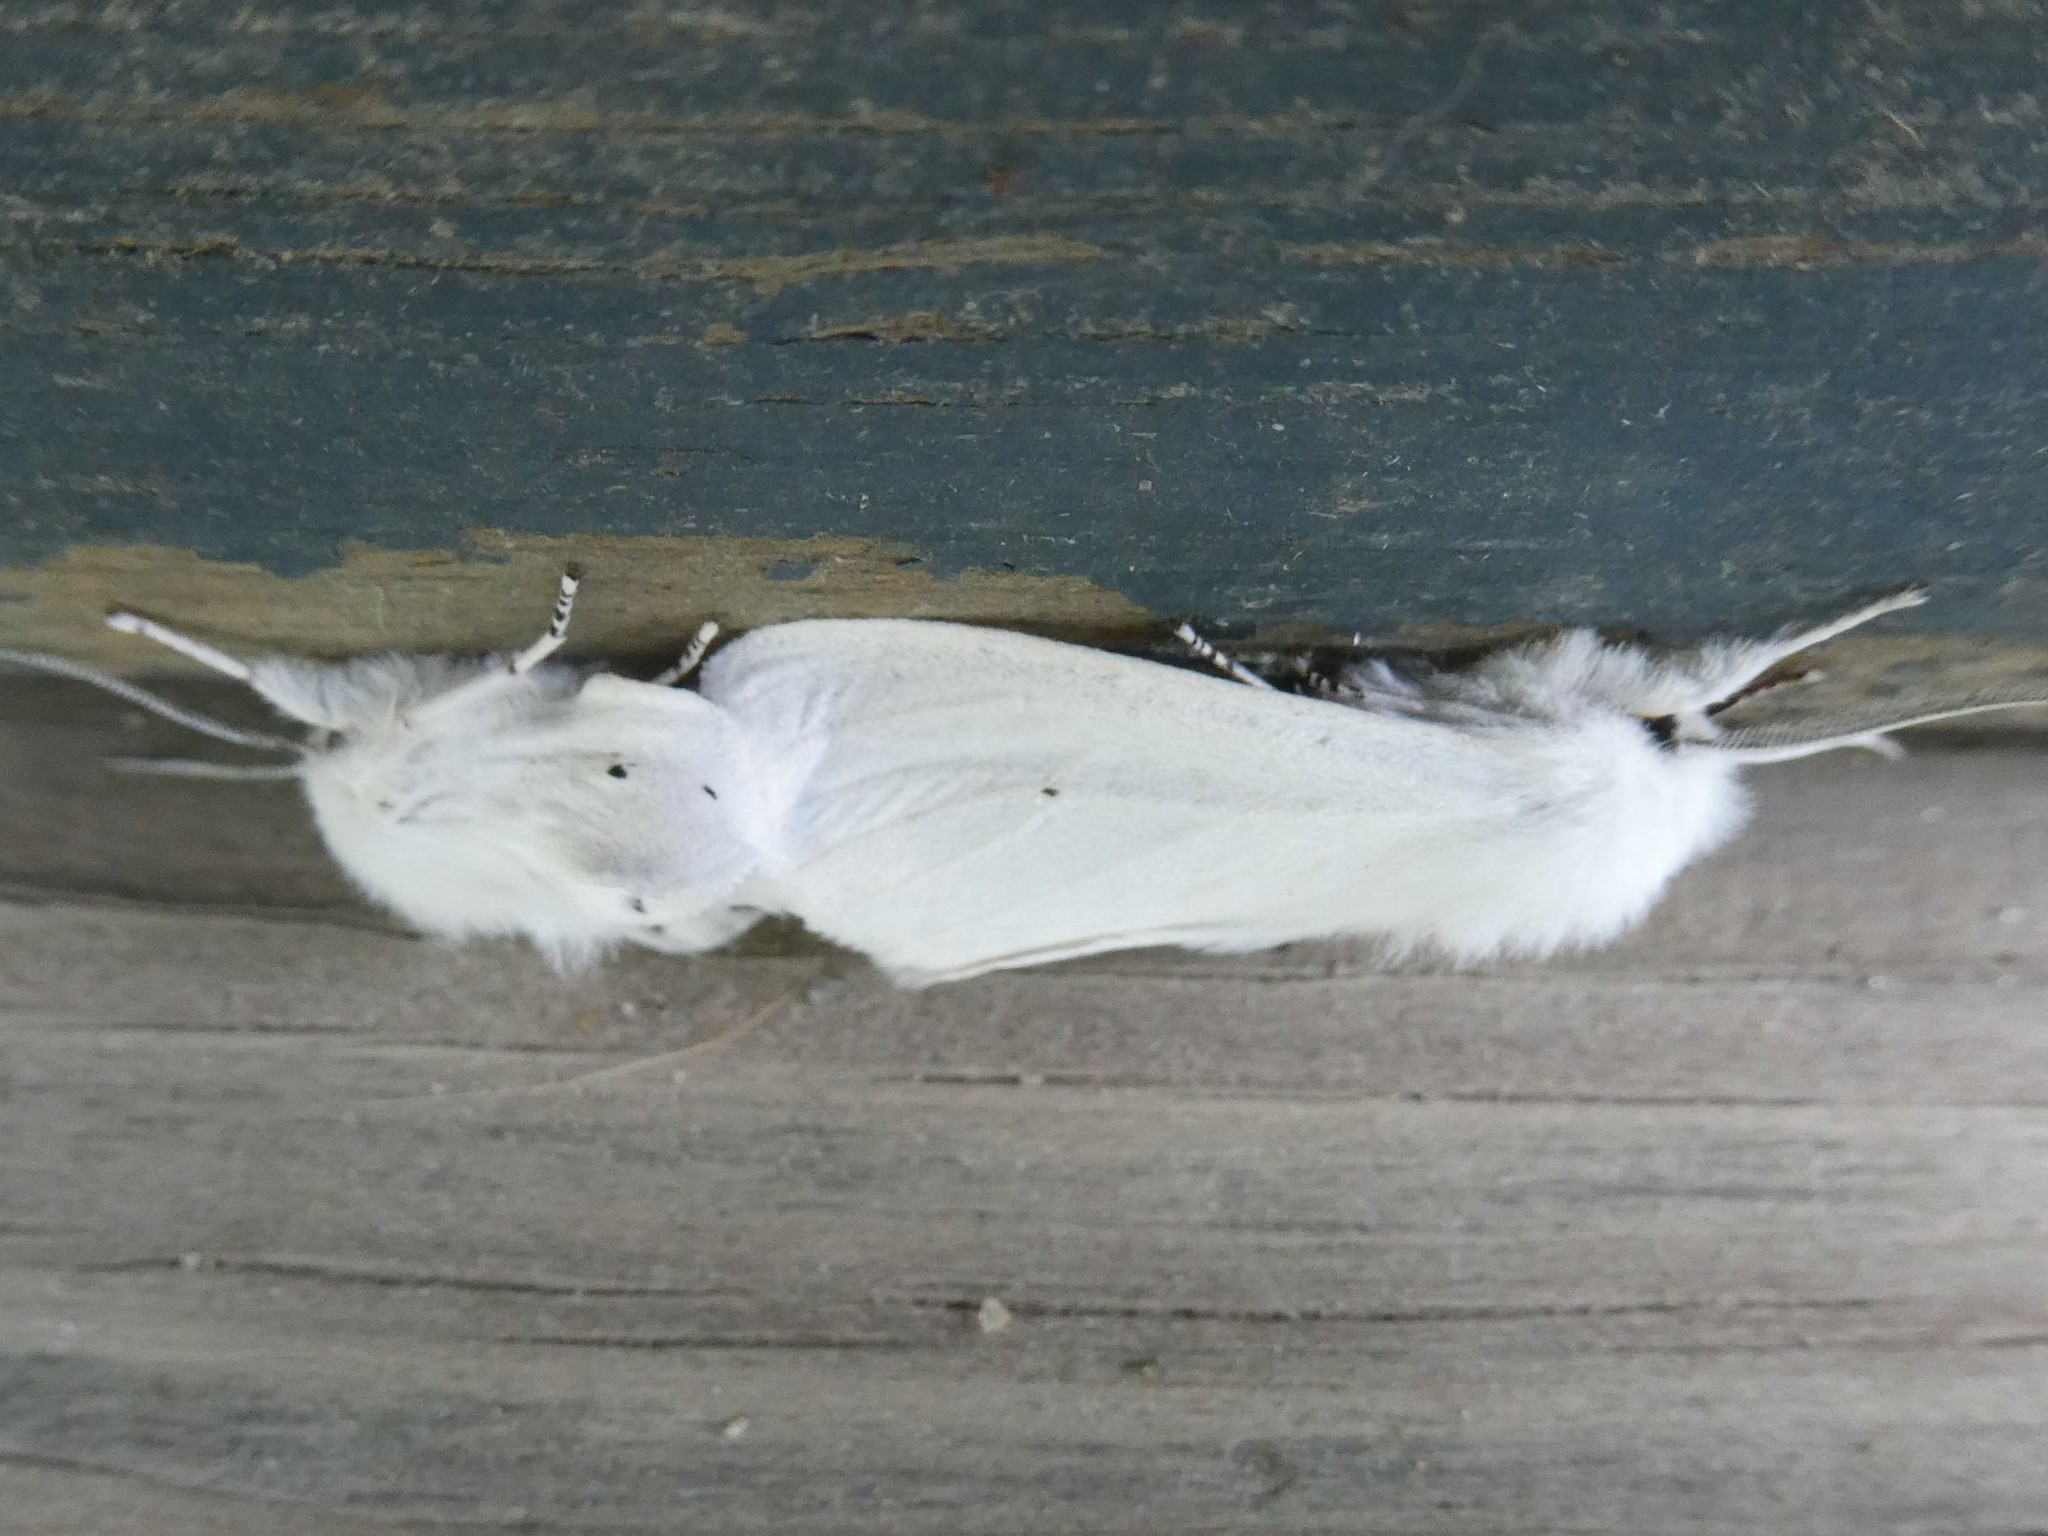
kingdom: Animalia
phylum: Arthropoda
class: Insecta
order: Lepidoptera
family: Erebidae
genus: Spilosoma
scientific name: Spilosoma virginica
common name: Virginia tiger moth
